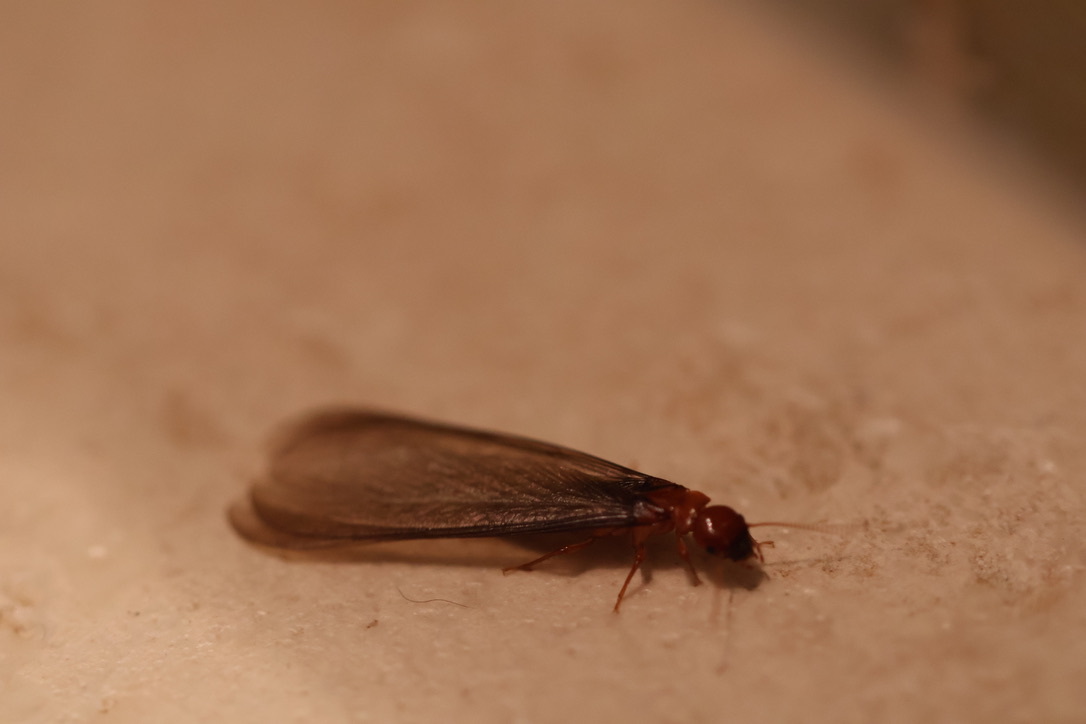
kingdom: Animalia
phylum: Arthropoda
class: Insecta
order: Blattodea
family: Archotermopsidae
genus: Zootermopsis
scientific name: Zootermopsis angusticollis
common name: Rottenwood termite
